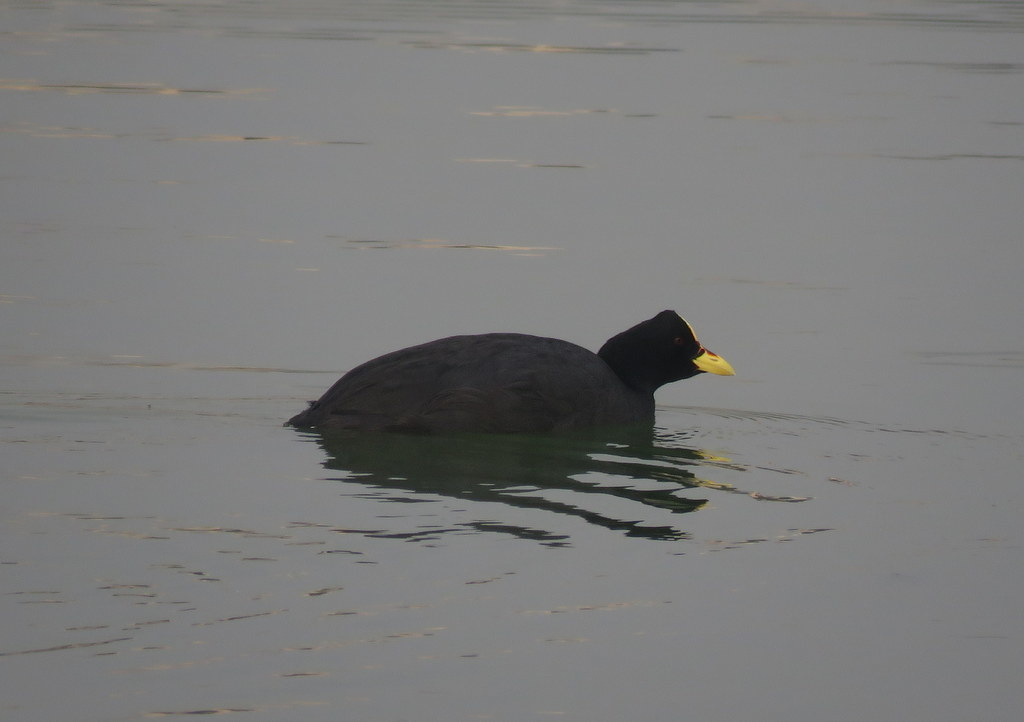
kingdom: Animalia
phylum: Chordata
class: Aves
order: Gruiformes
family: Rallidae
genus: Fulica
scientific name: Fulica rufifrons
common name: Red-fronted coot
